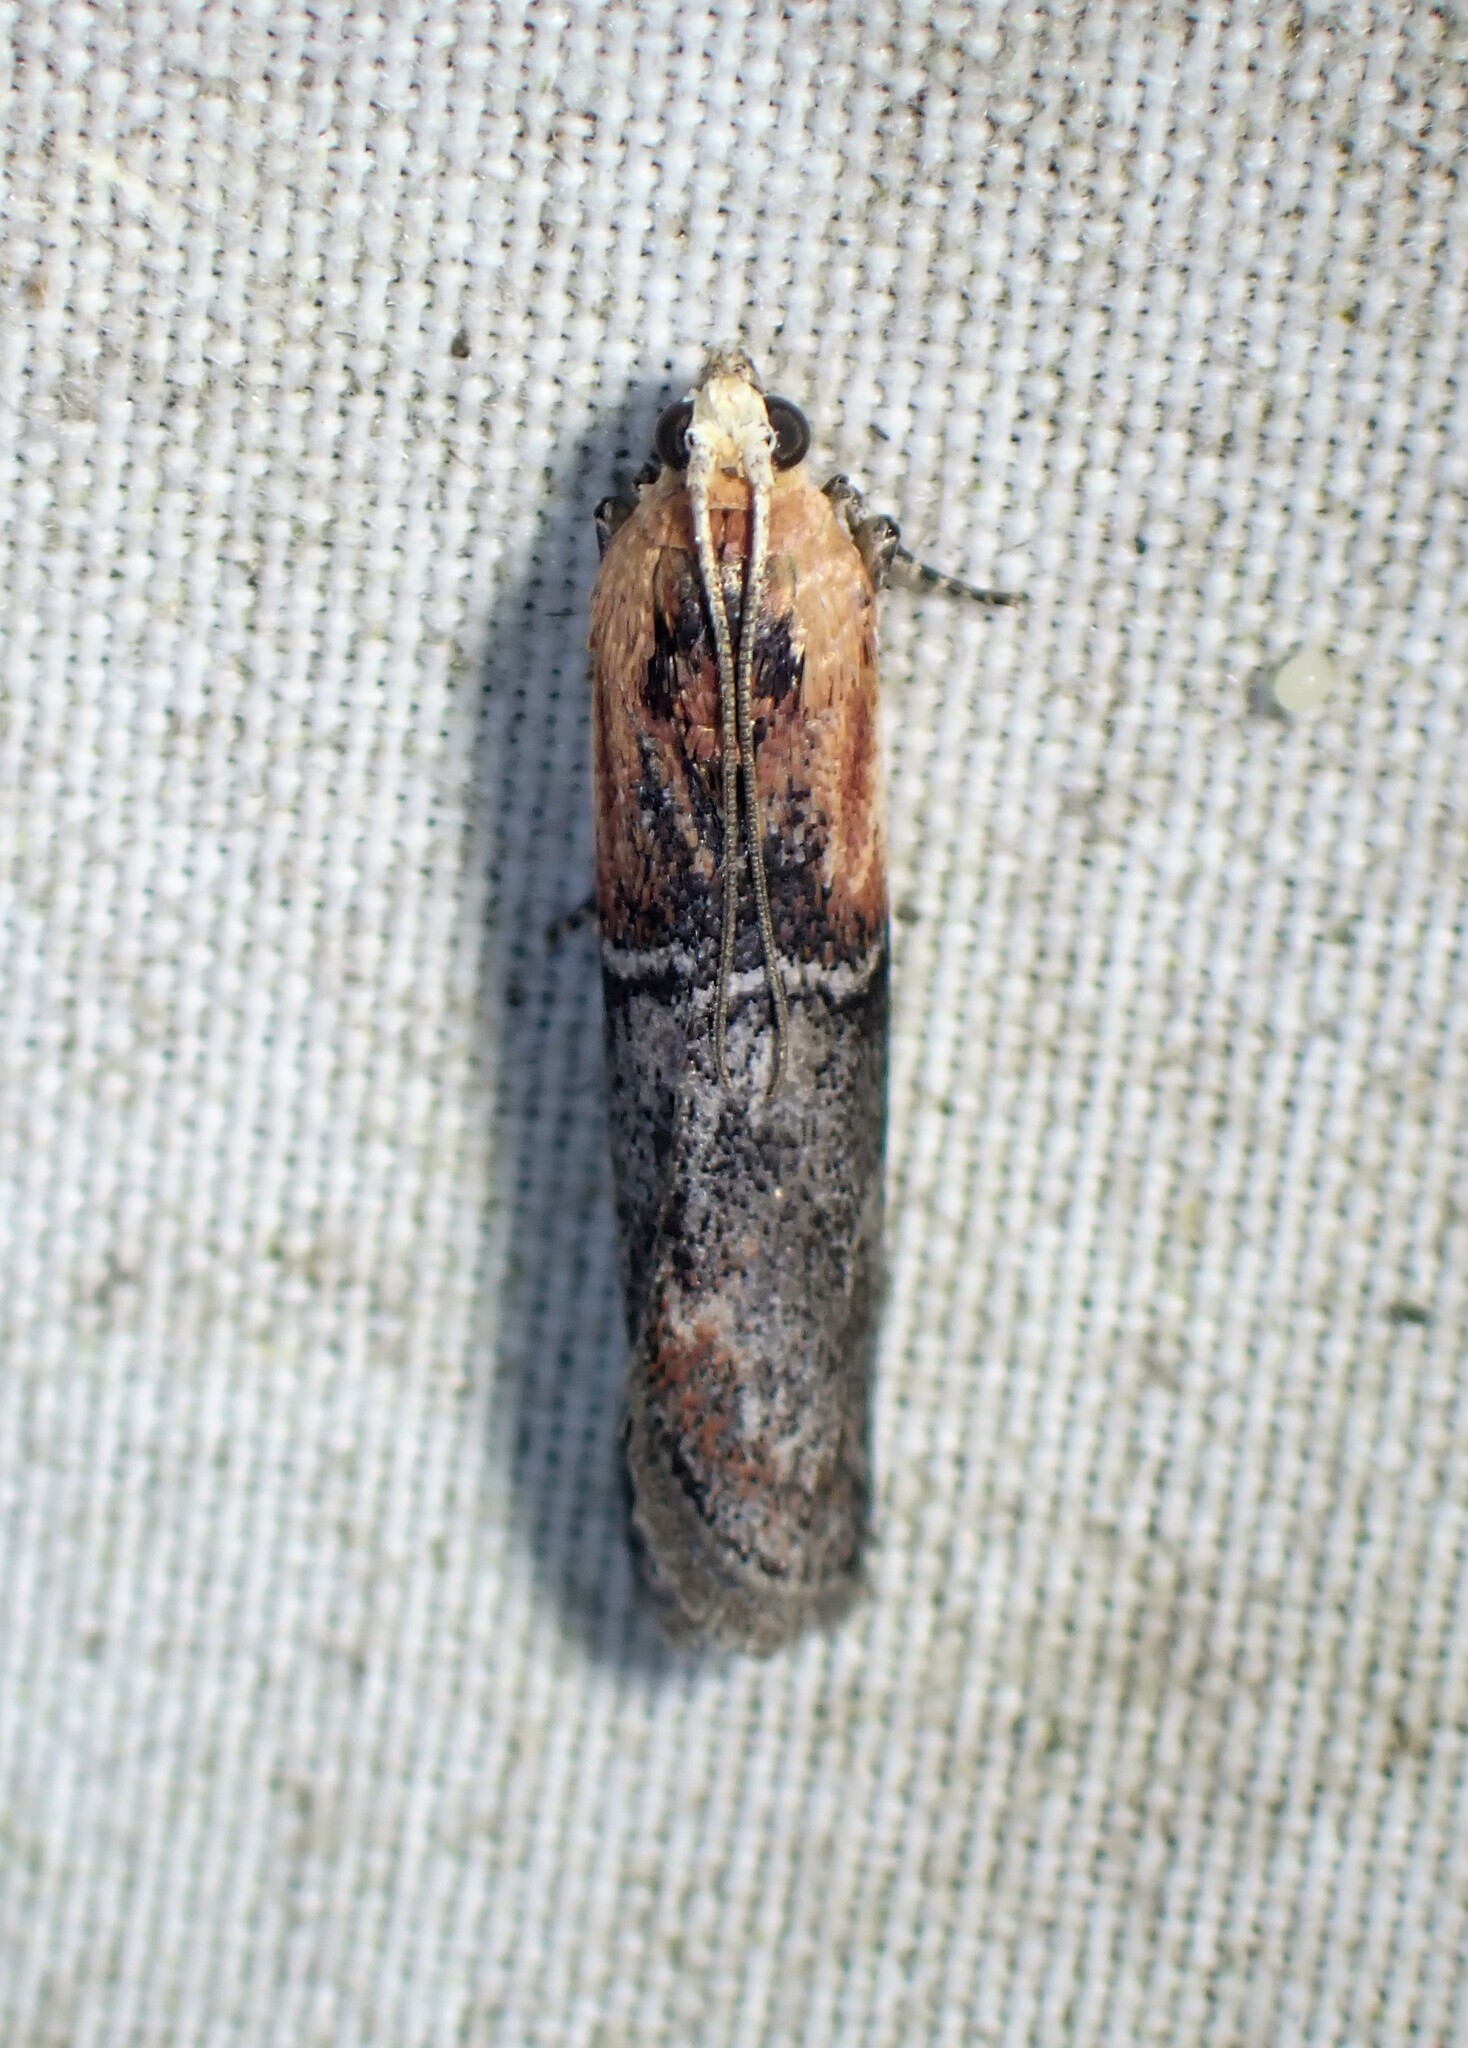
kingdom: Animalia
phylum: Arthropoda
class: Insecta
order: Lepidoptera
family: Pyralidae
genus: Sciota
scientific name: Sciota basilaris
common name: Yellow-shouldered leafroller
